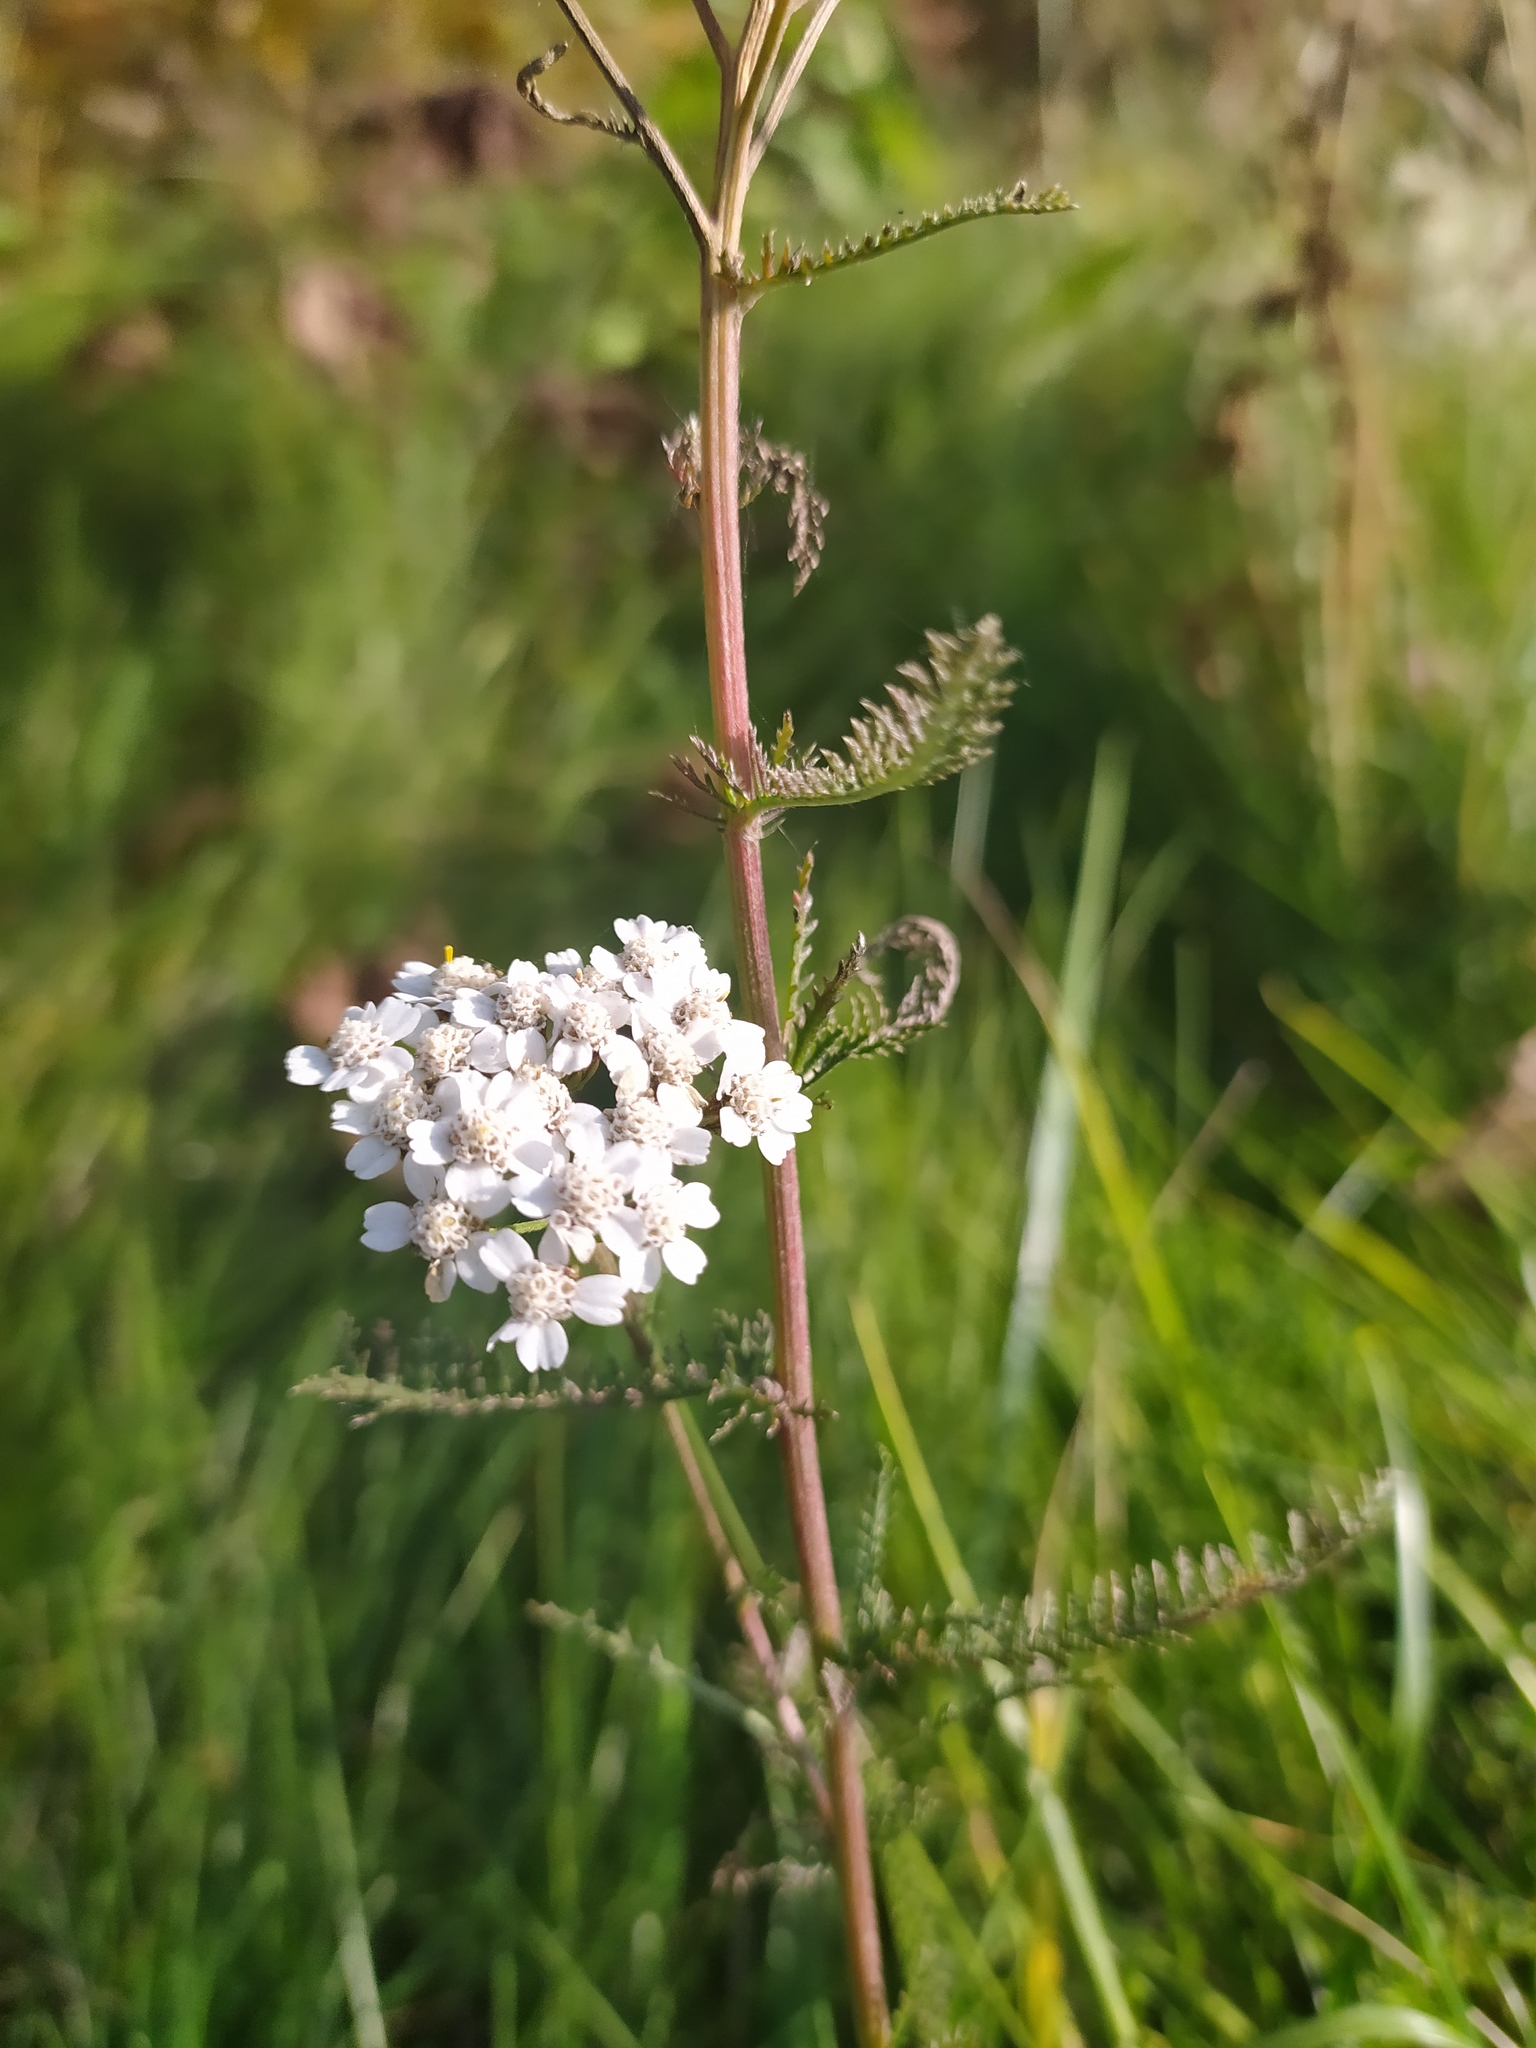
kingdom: Plantae
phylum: Tracheophyta
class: Magnoliopsida
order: Asterales
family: Asteraceae
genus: Achillea
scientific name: Achillea millefolium
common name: Yarrow
